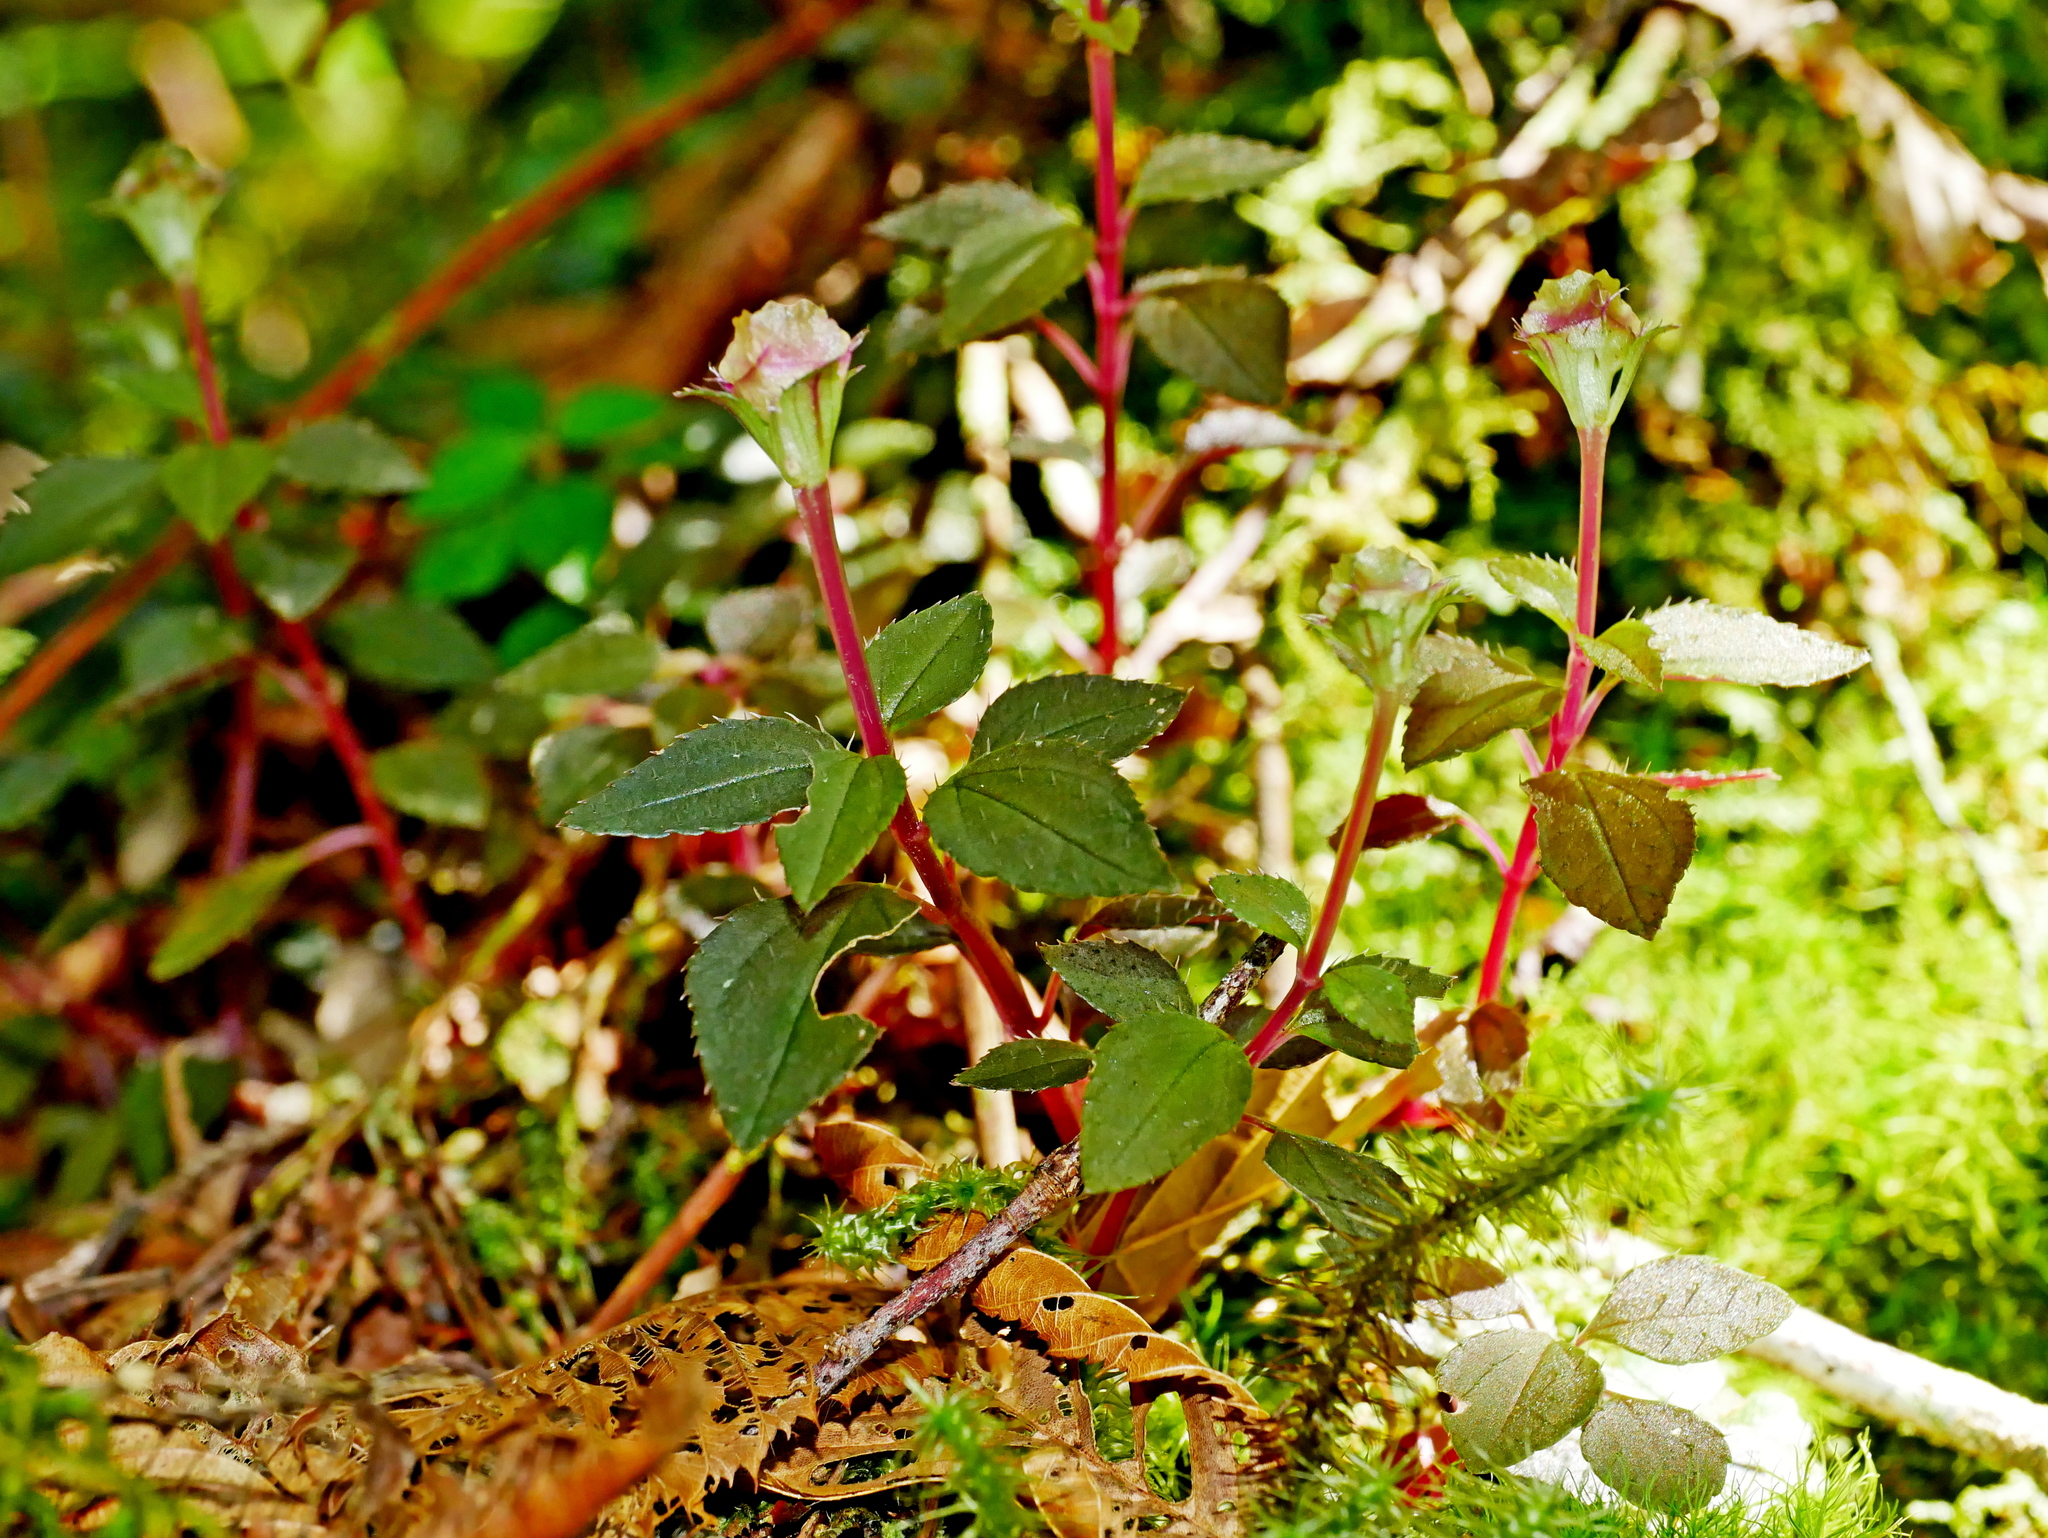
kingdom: Plantae
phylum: Tracheophyta
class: Magnoliopsida
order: Myrtales
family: Melastomataceae
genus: Sarcopyramis
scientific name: Sarcopyramis napalensis
